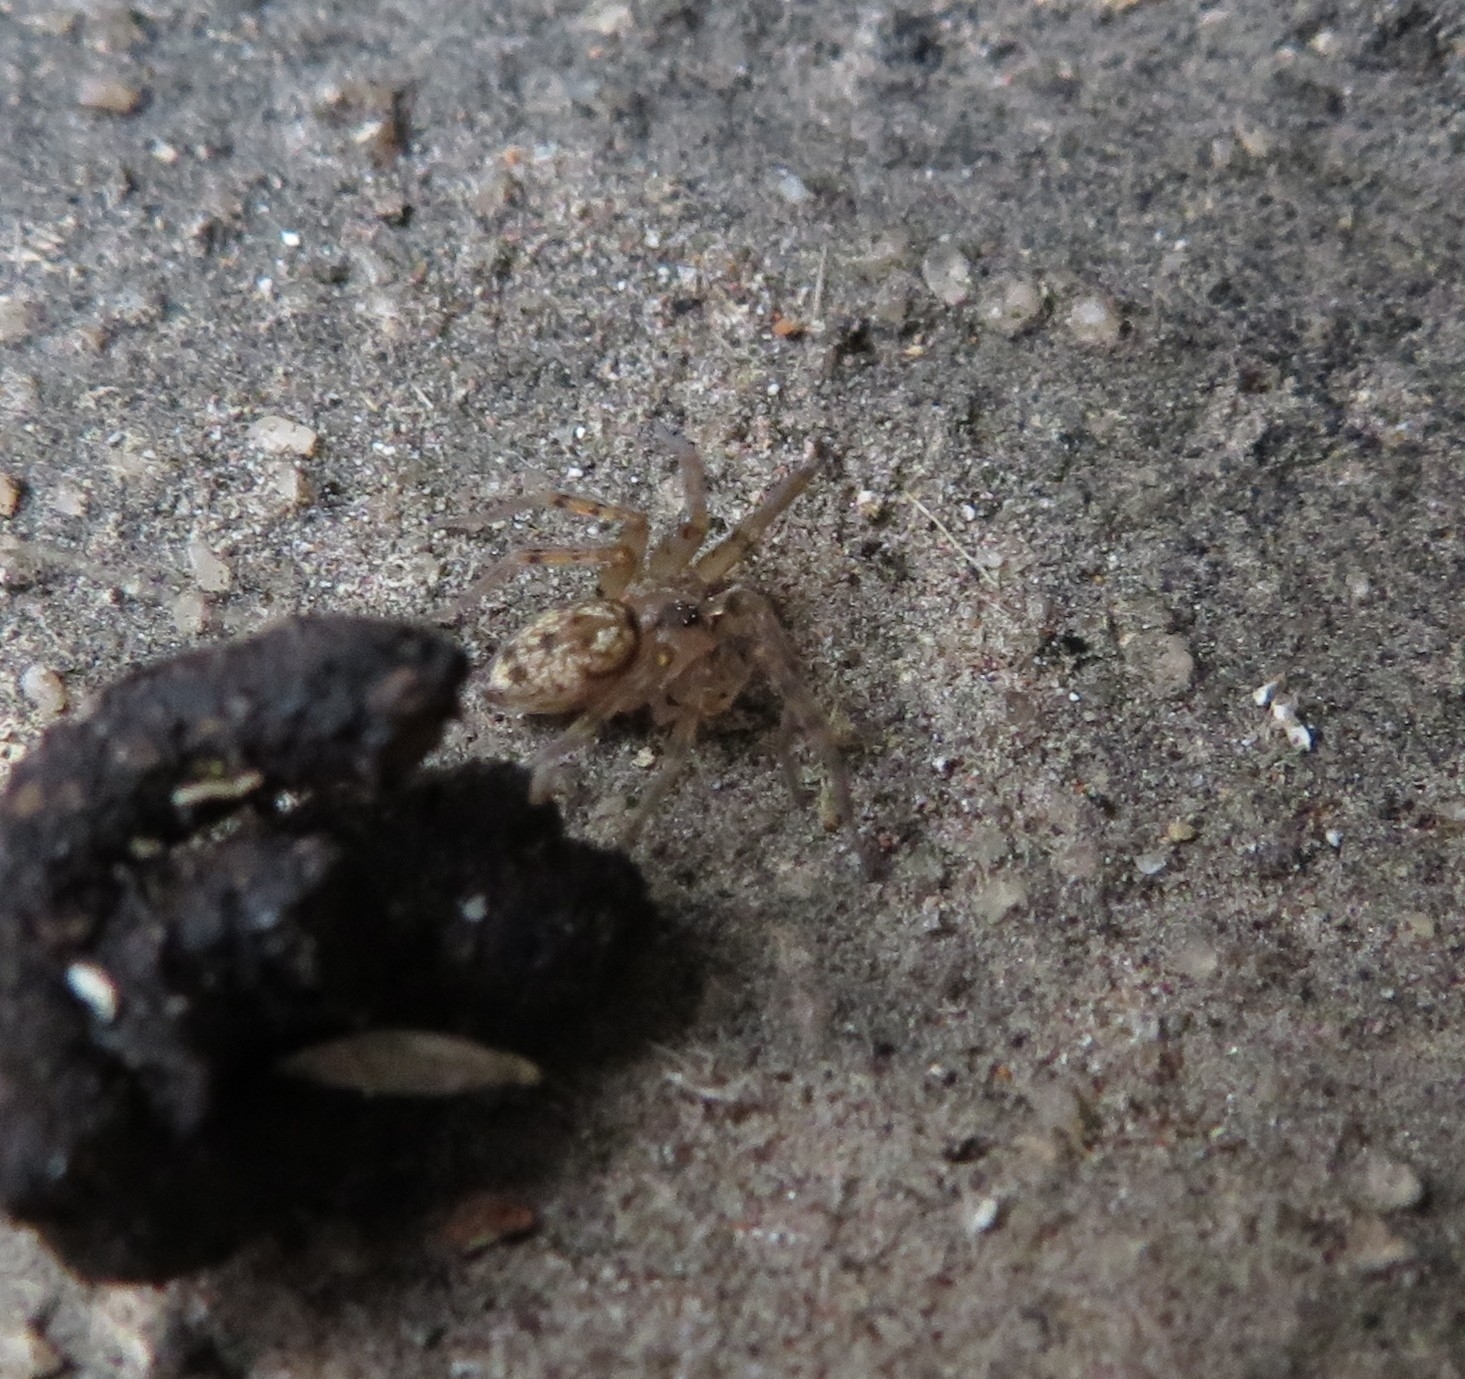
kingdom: Animalia
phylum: Arthropoda
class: Arachnida
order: Araneae
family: Oecobiidae
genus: Oecobius
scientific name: Oecobius navus
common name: Flatmesh weaver
